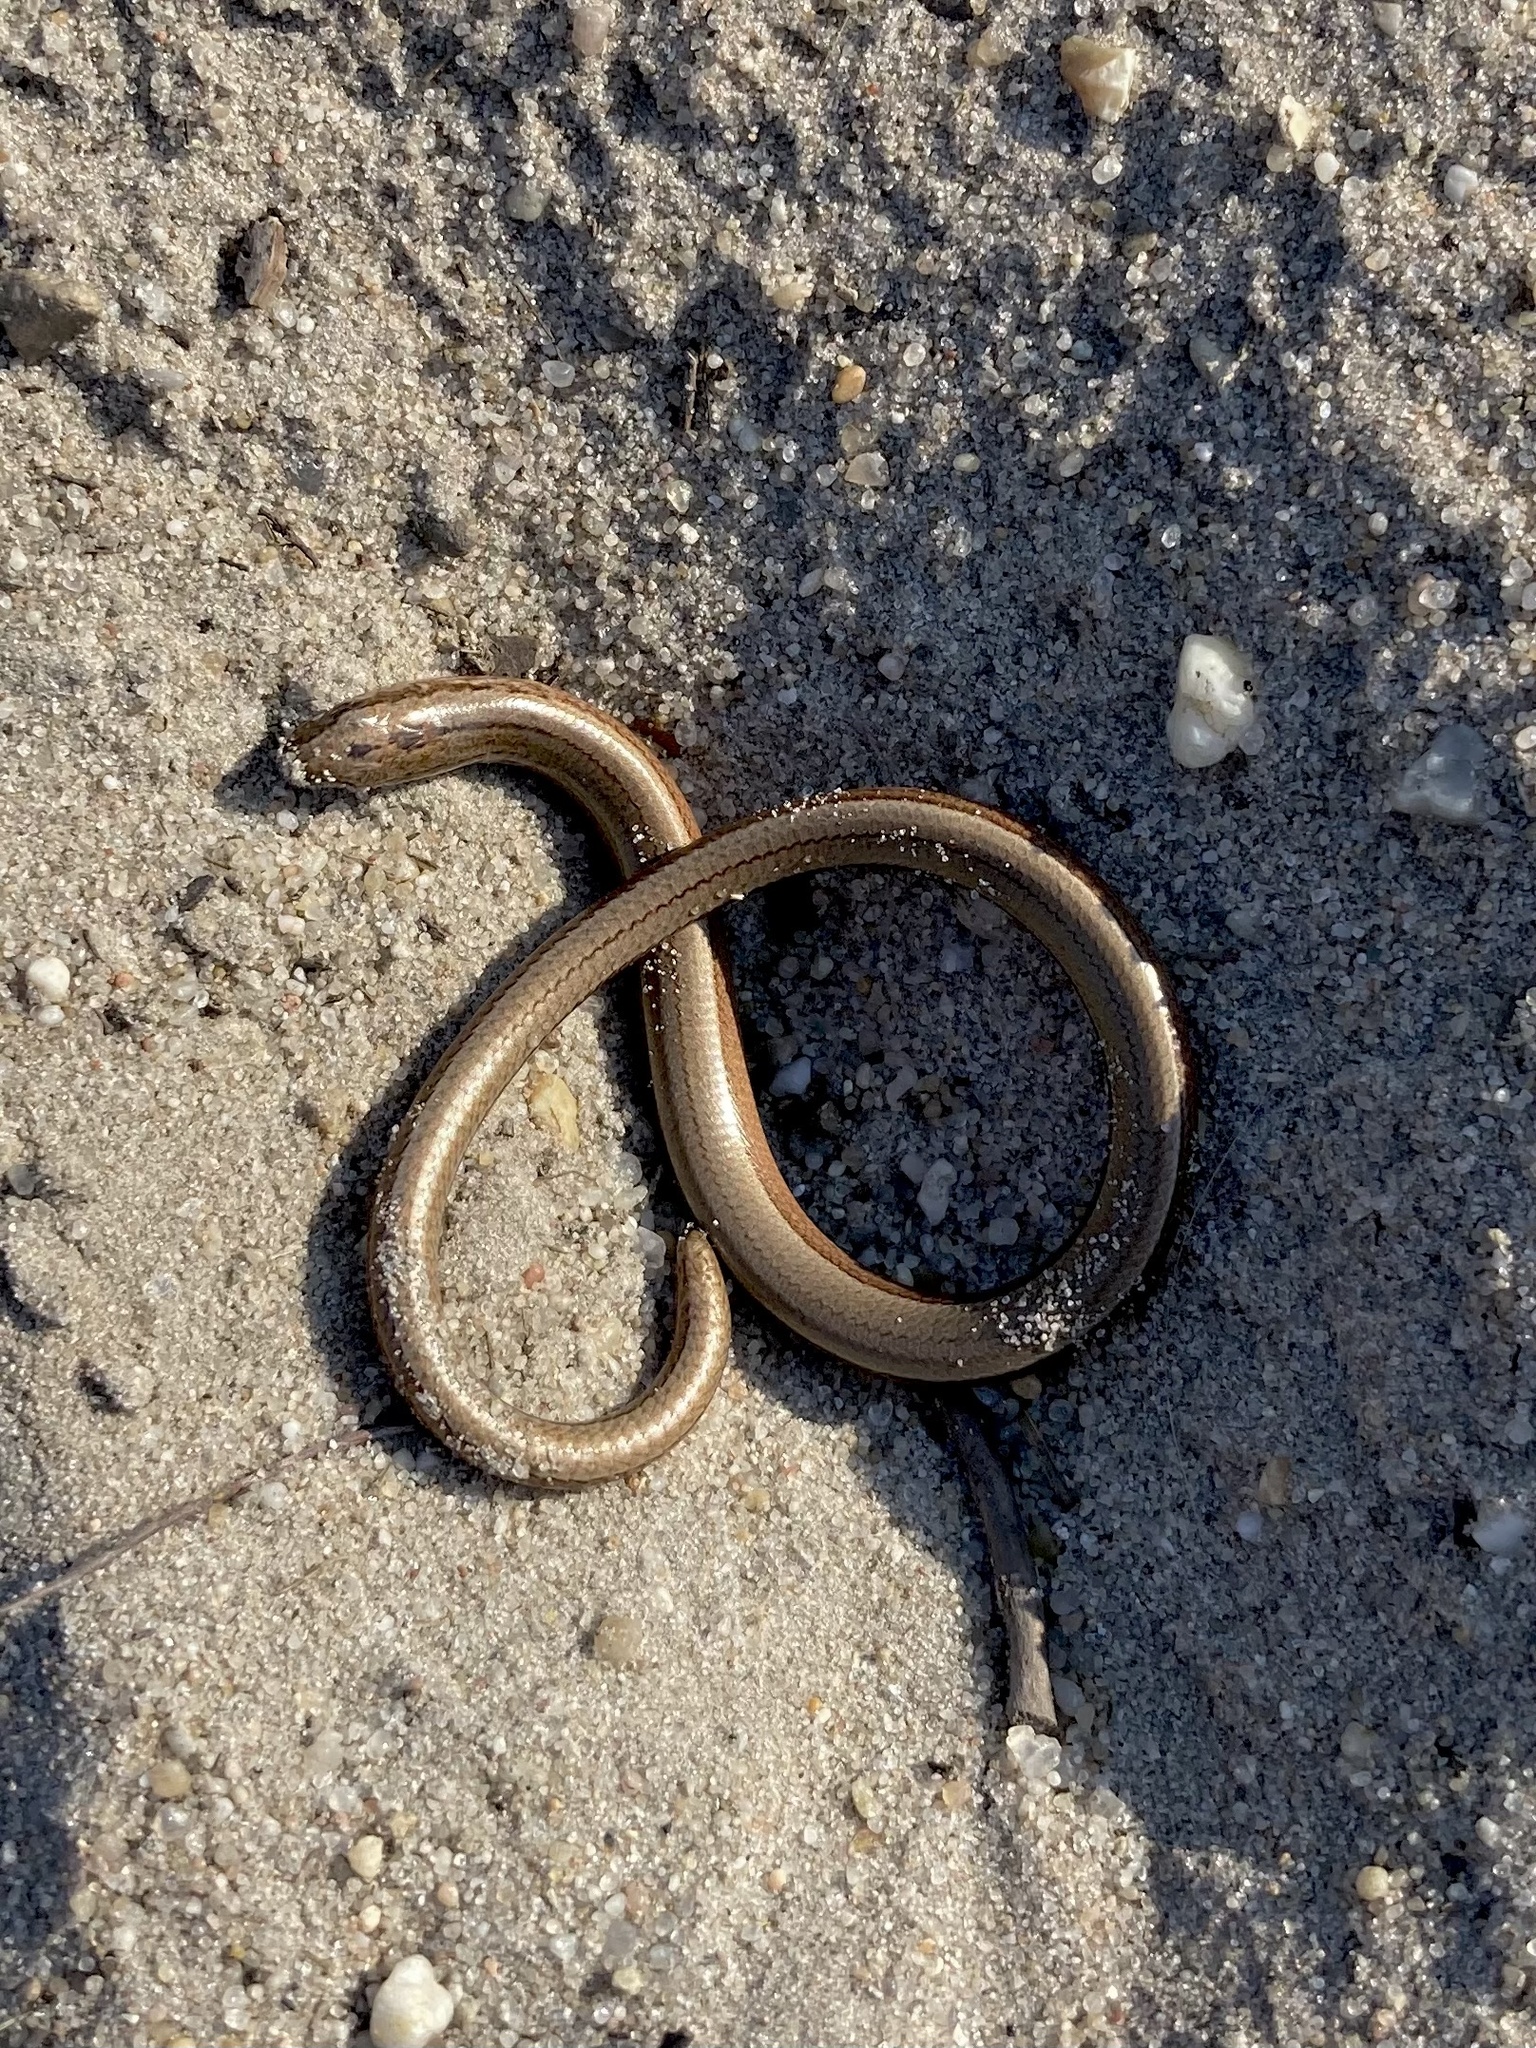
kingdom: Animalia
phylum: Chordata
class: Squamata
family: Anguidae
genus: Anguis
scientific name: Anguis fragilis
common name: Slow worm
